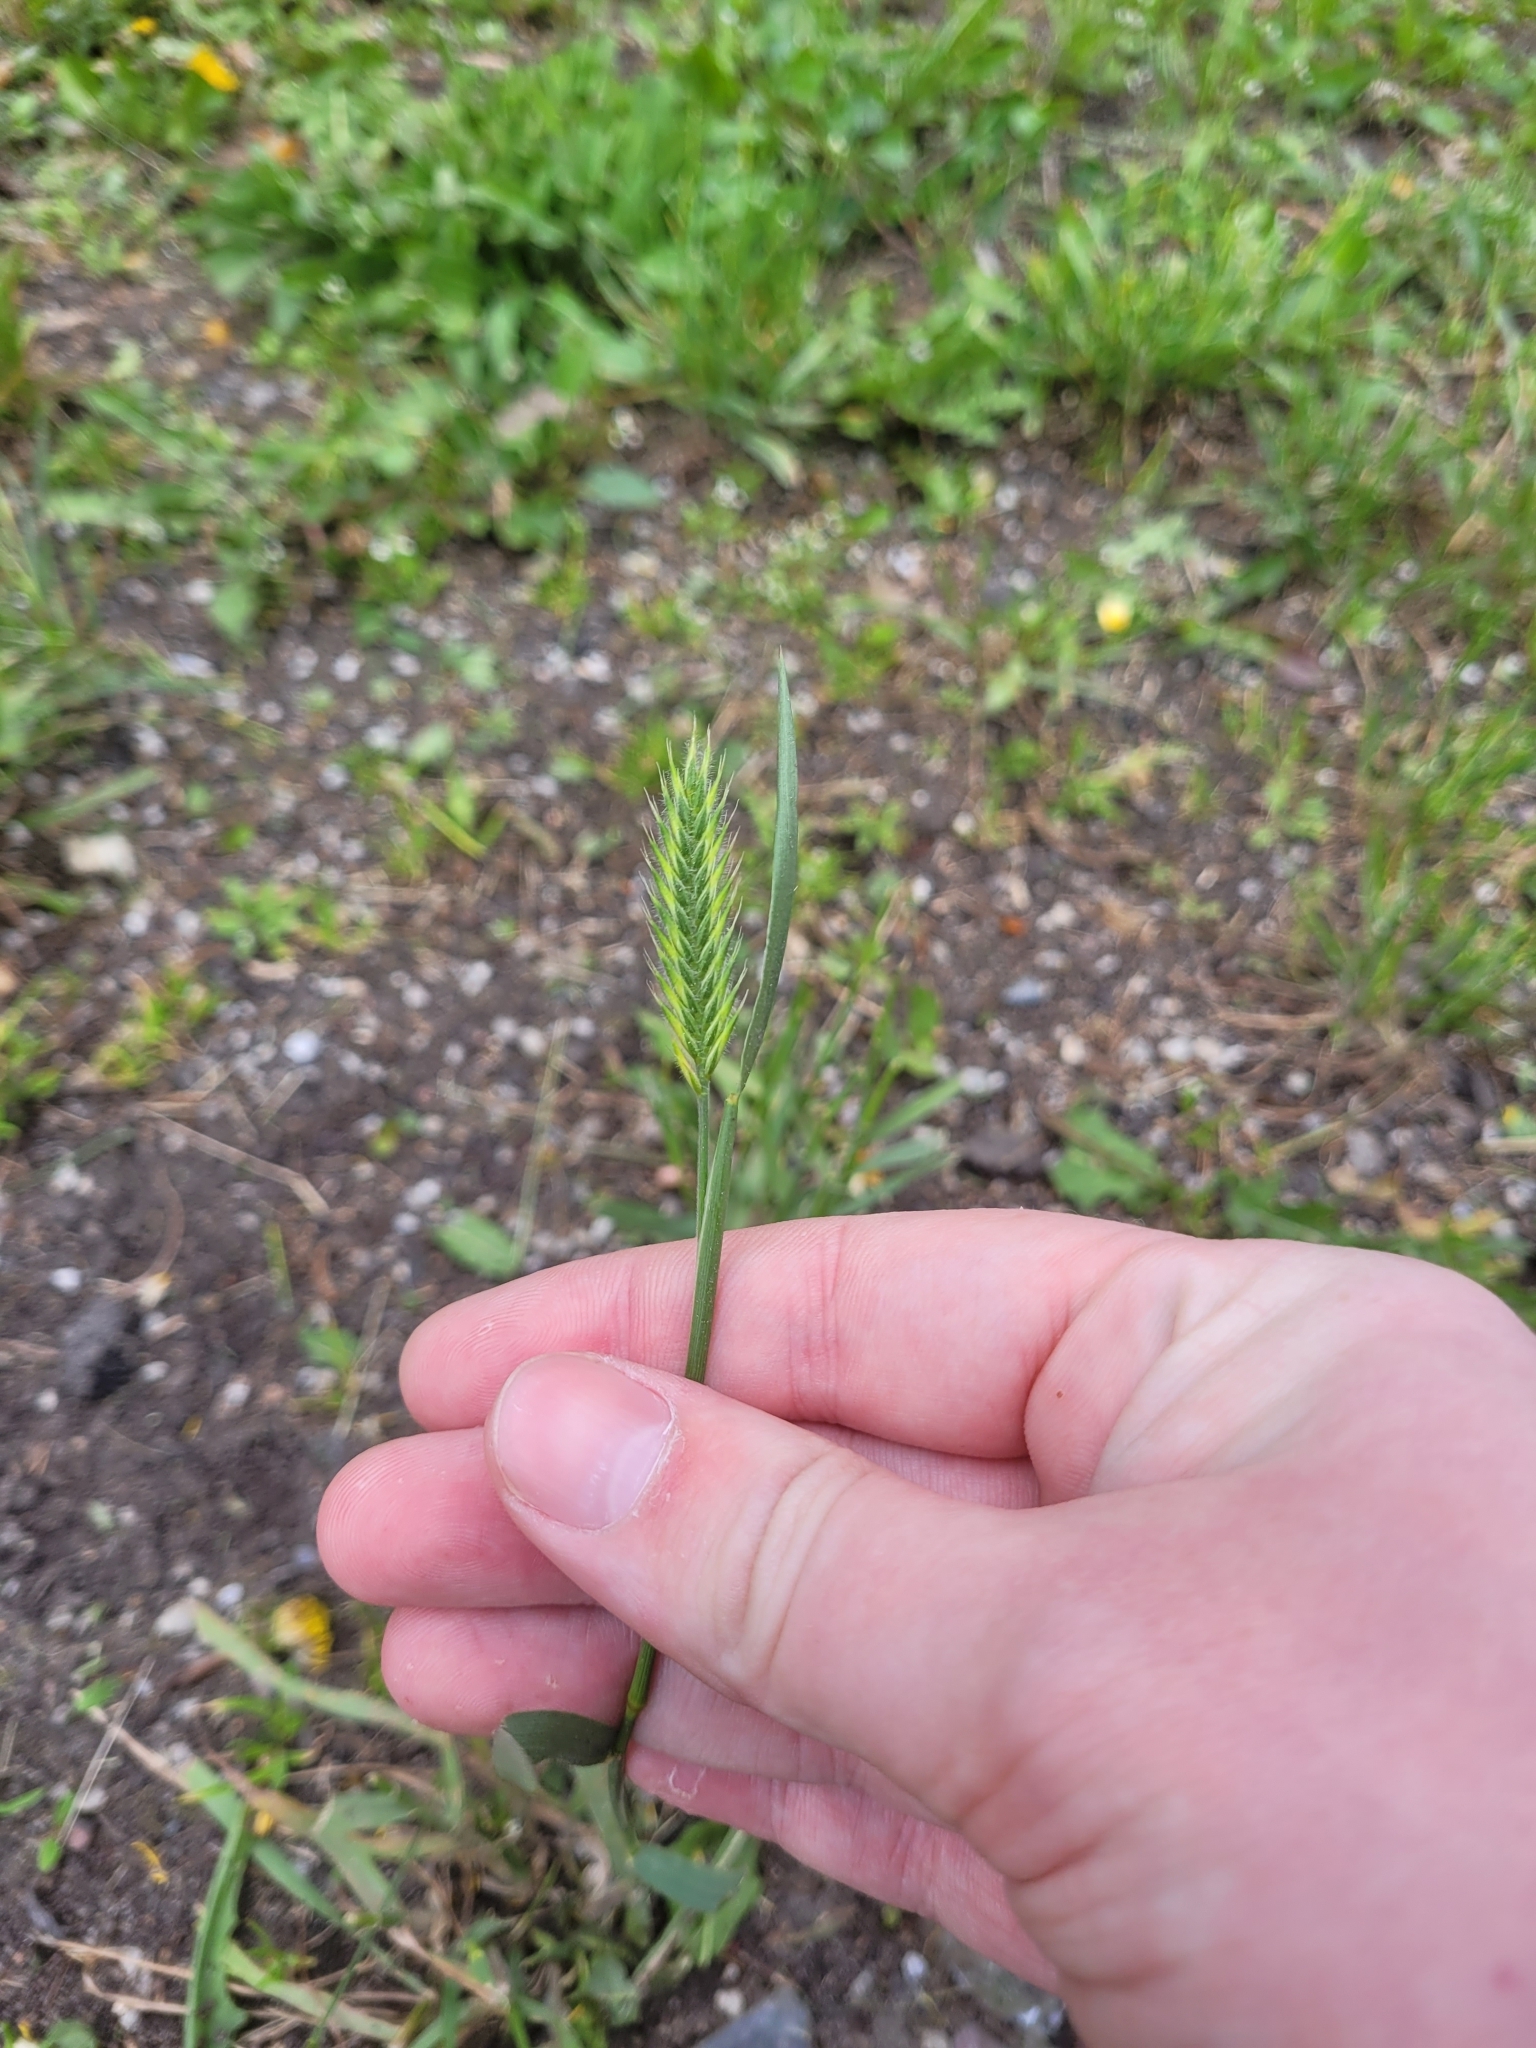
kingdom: Plantae
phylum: Tracheophyta
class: Liliopsida
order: Poales
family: Poaceae
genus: Agropyron
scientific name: Agropyron cristatum
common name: Crested wheatgrass
